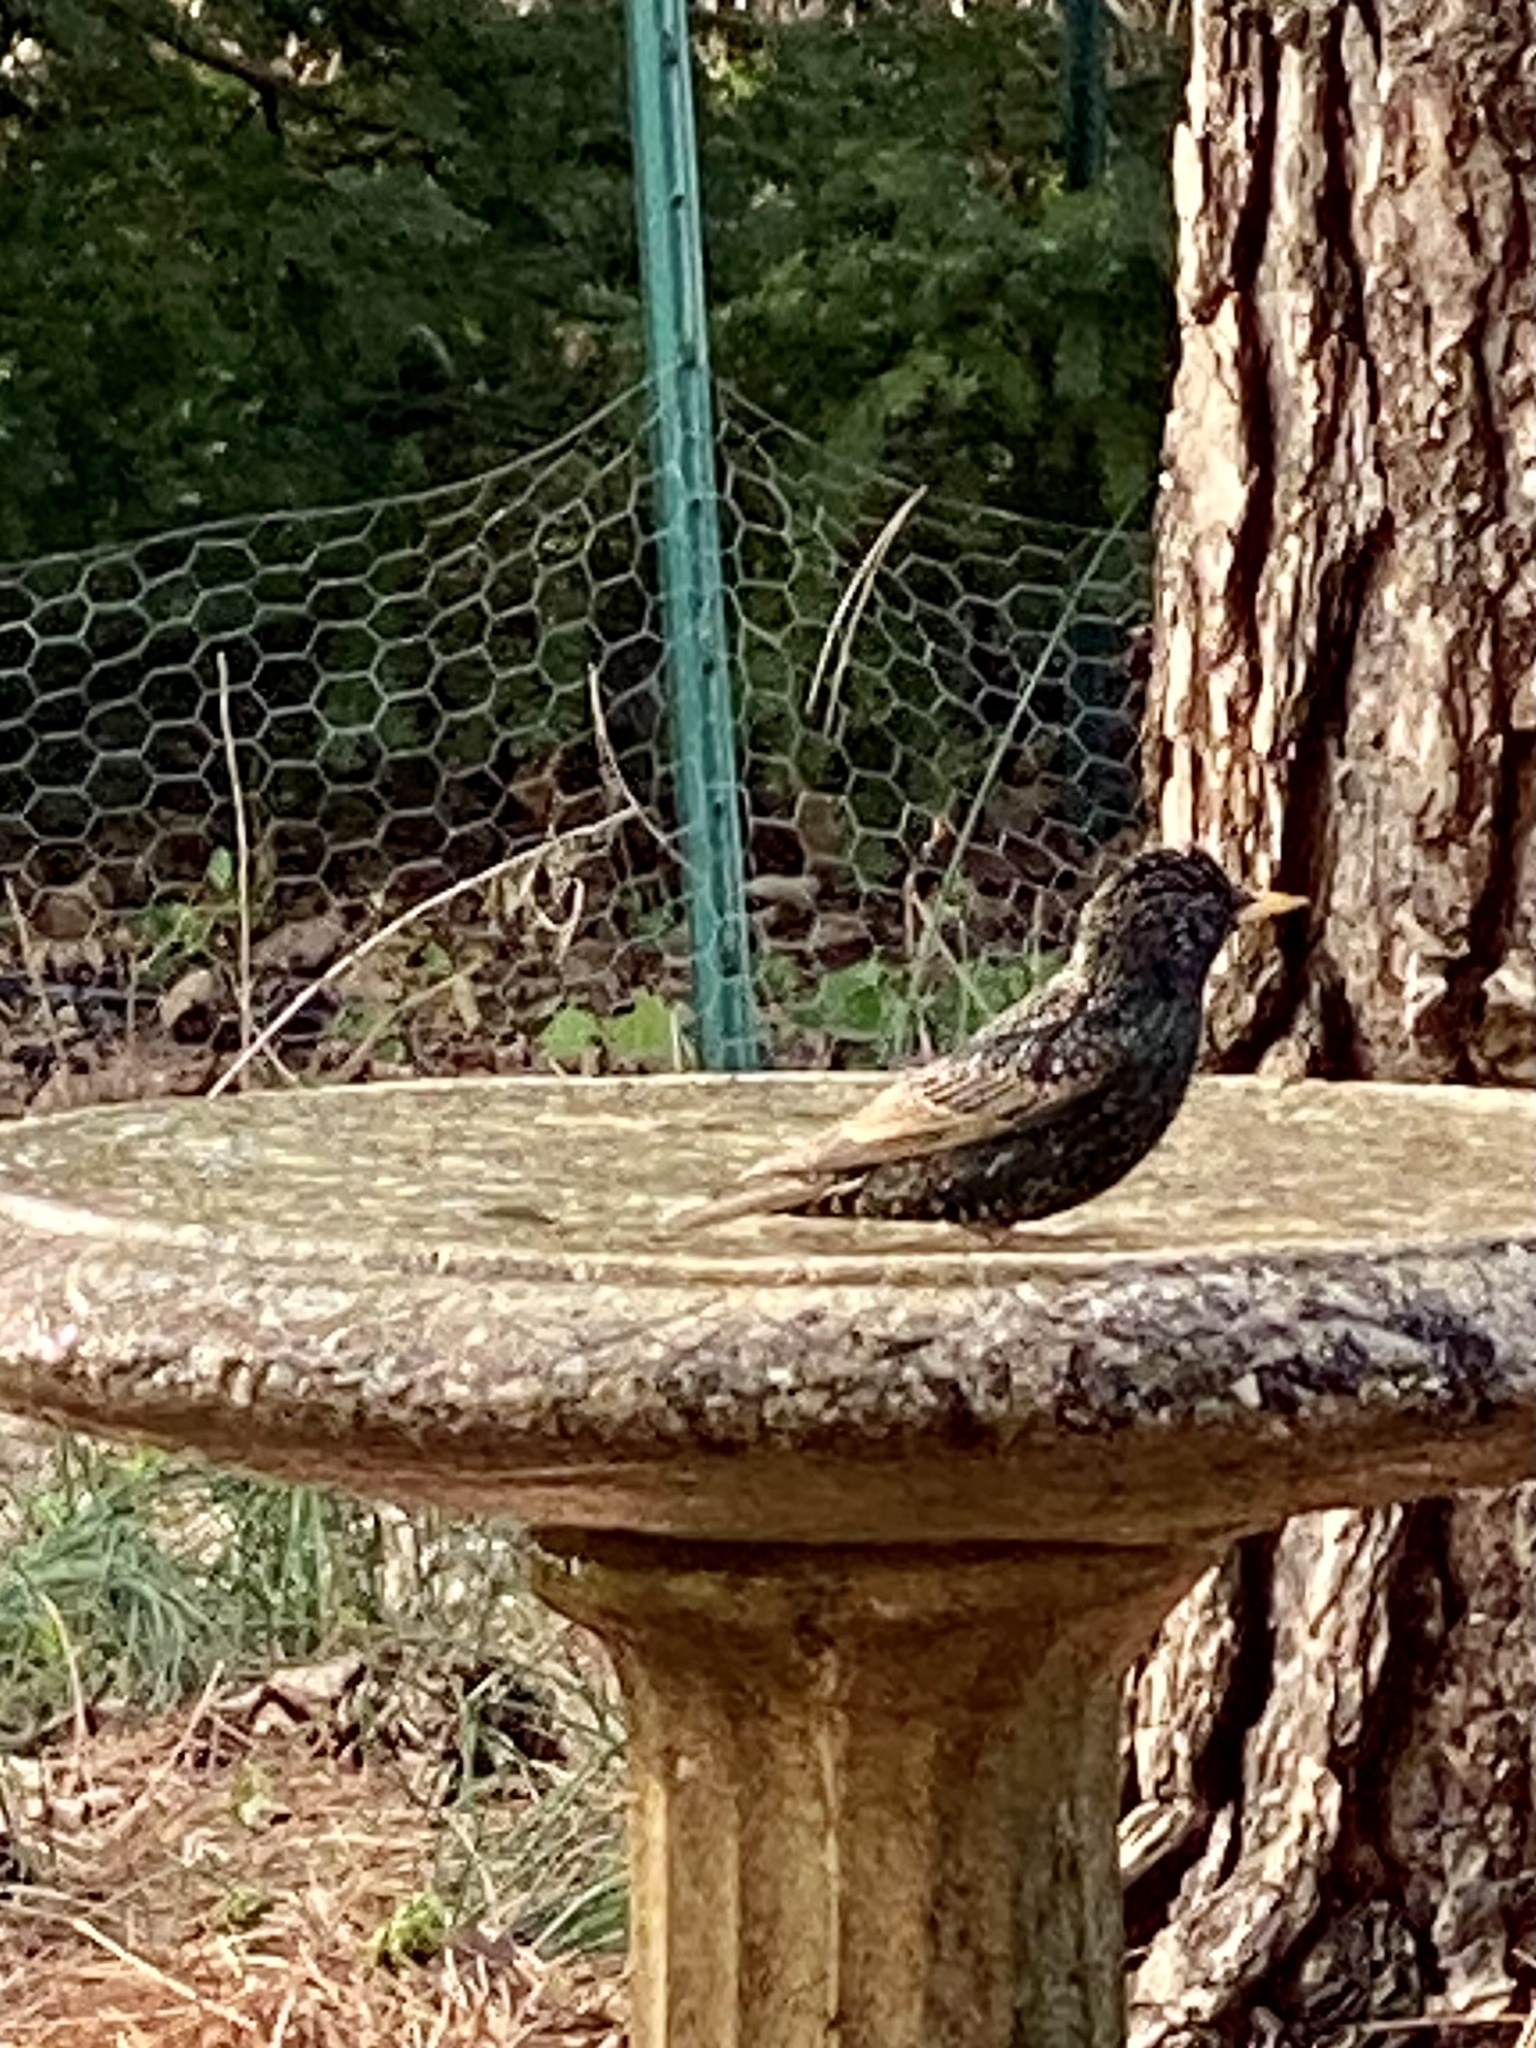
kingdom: Animalia
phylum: Chordata
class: Aves
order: Passeriformes
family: Sturnidae
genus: Sturnus
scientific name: Sturnus vulgaris
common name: Common starling
